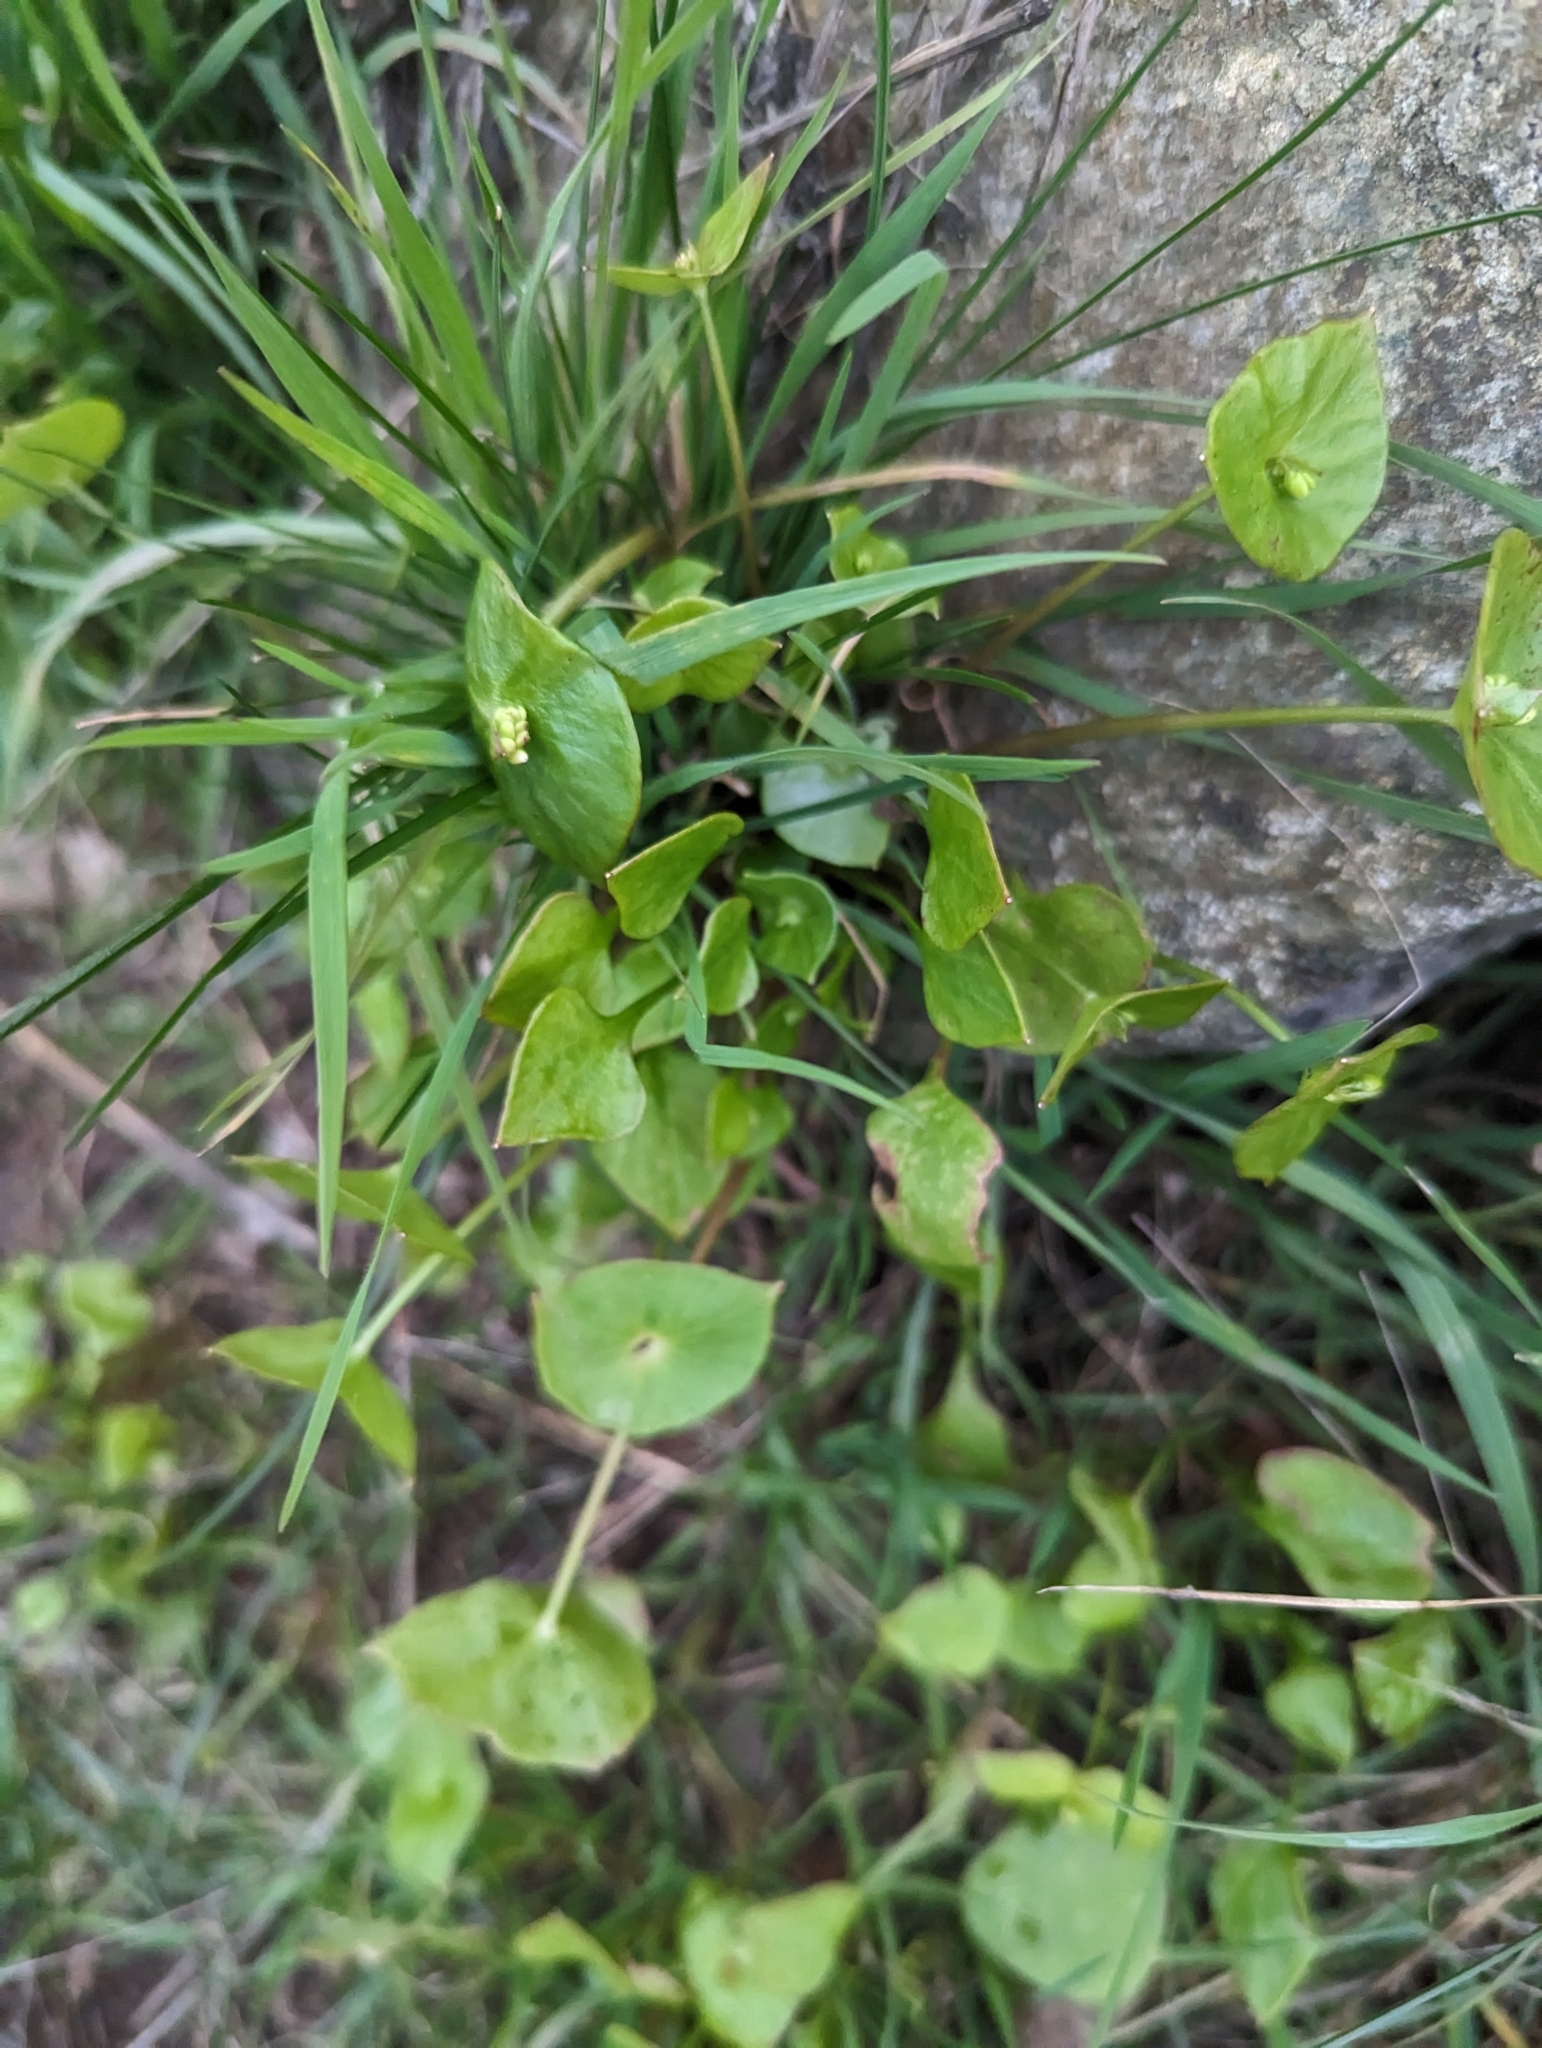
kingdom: Plantae
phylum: Tracheophyta
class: Magnoliopsida
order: Caryophyllales
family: Montiaceae
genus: Claytonia
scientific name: Claytonia perfoliata
